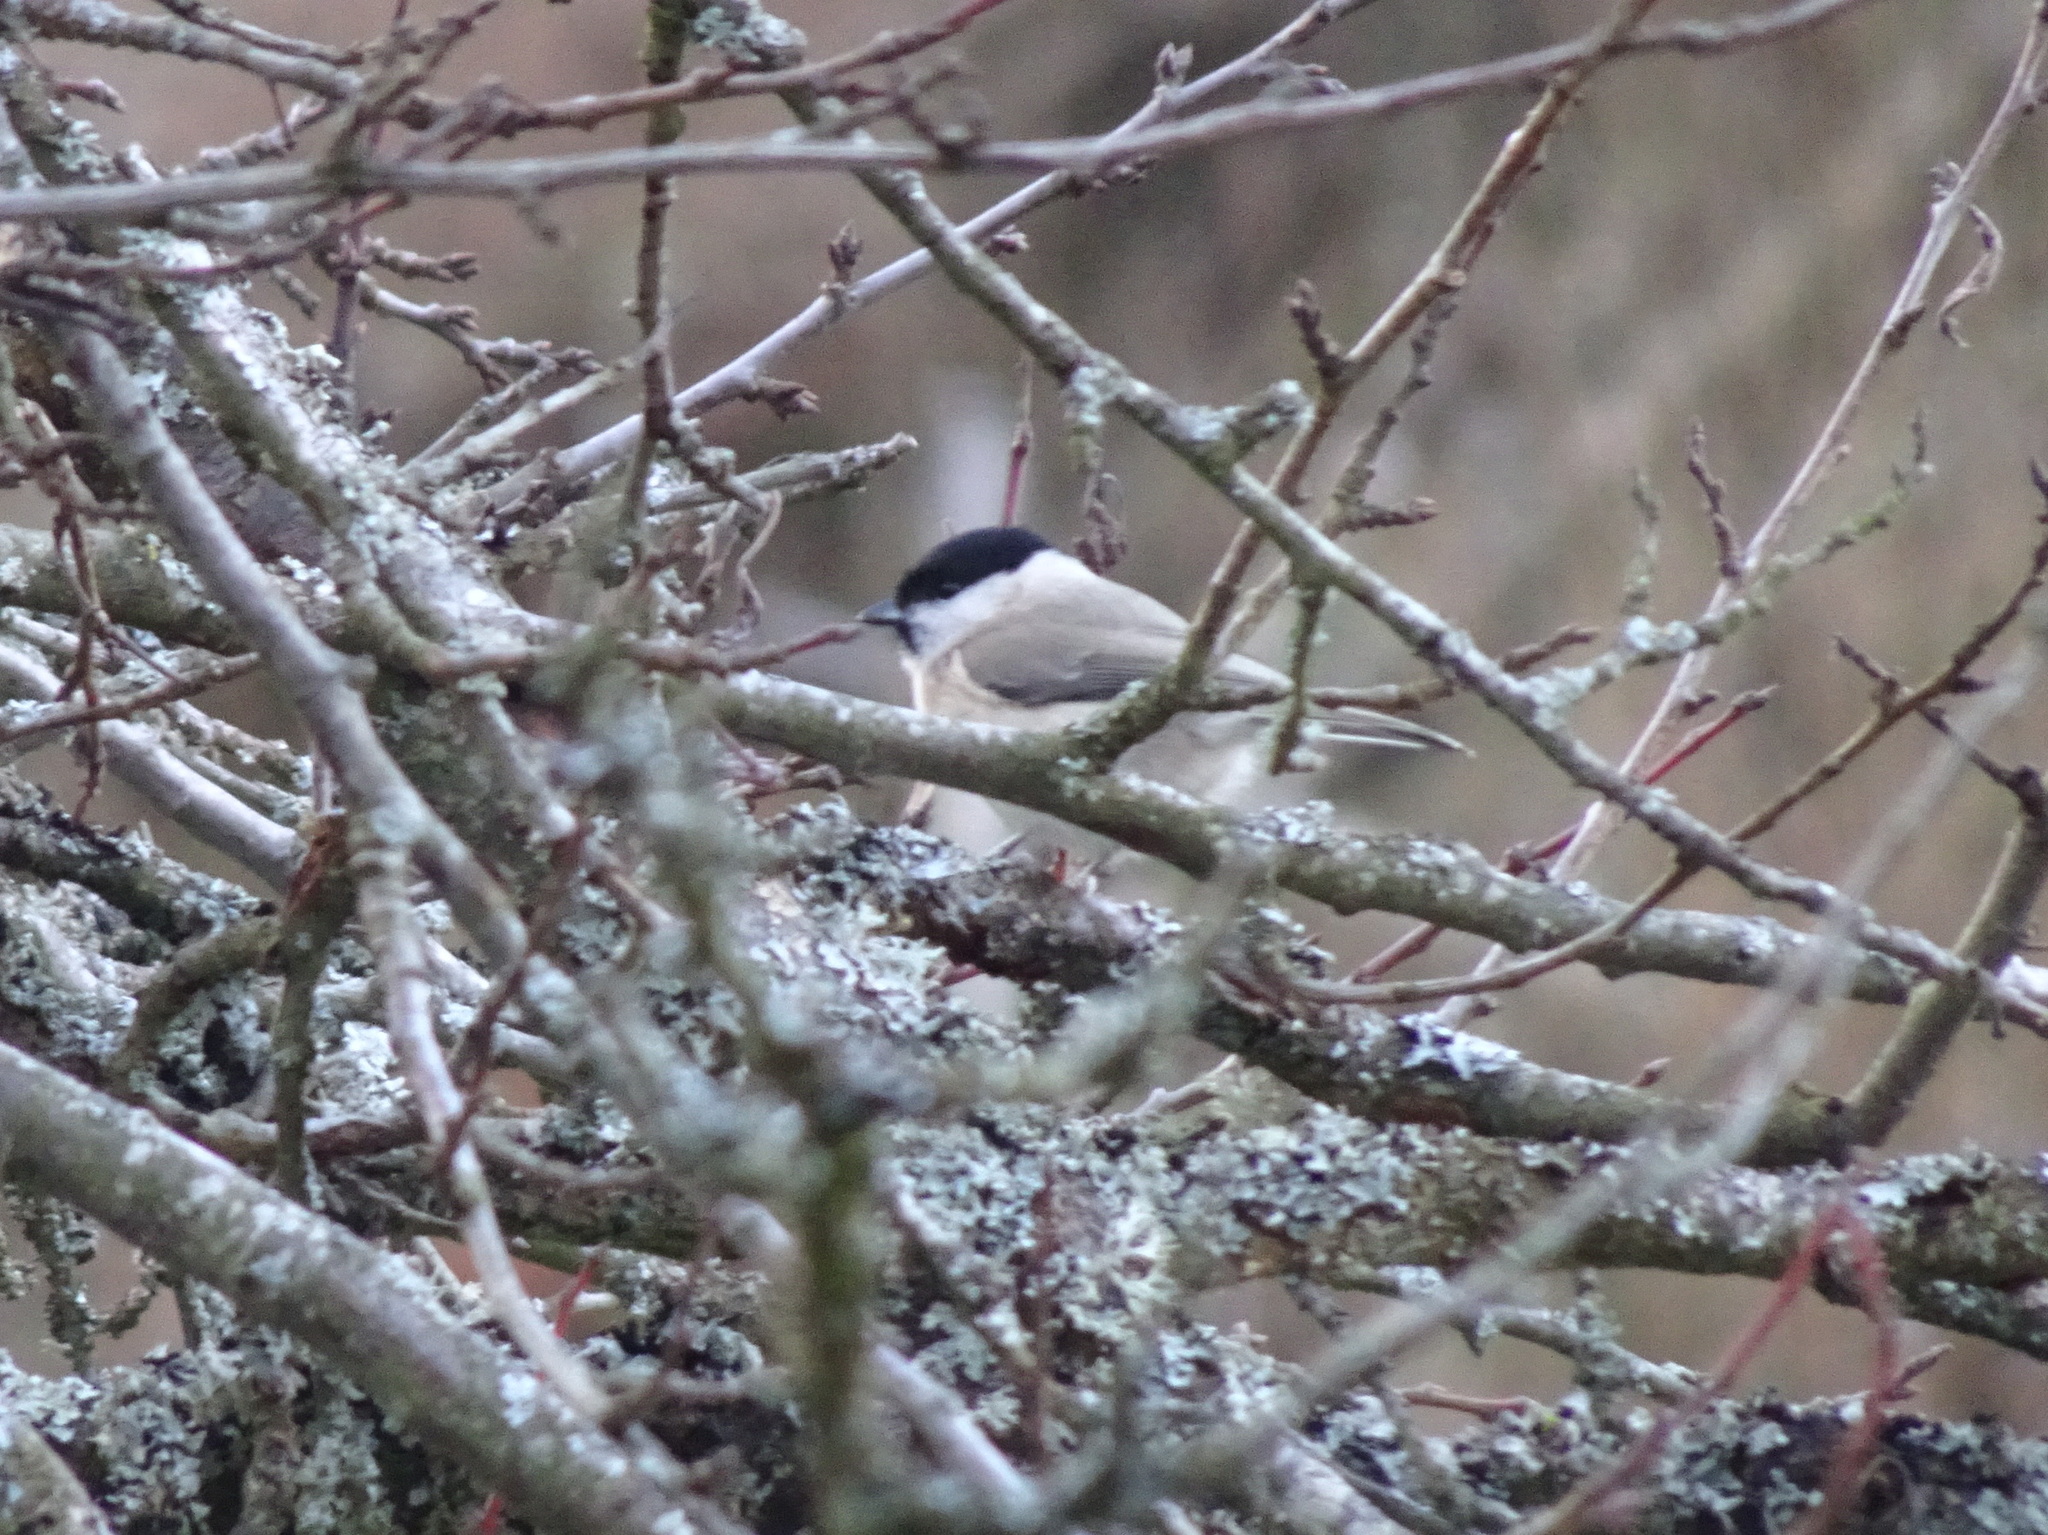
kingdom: Animalia
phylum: Chordata
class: Aves
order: Passeriformes
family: Paridae
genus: Poecile
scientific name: Poecile palustris
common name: Marsh tit
